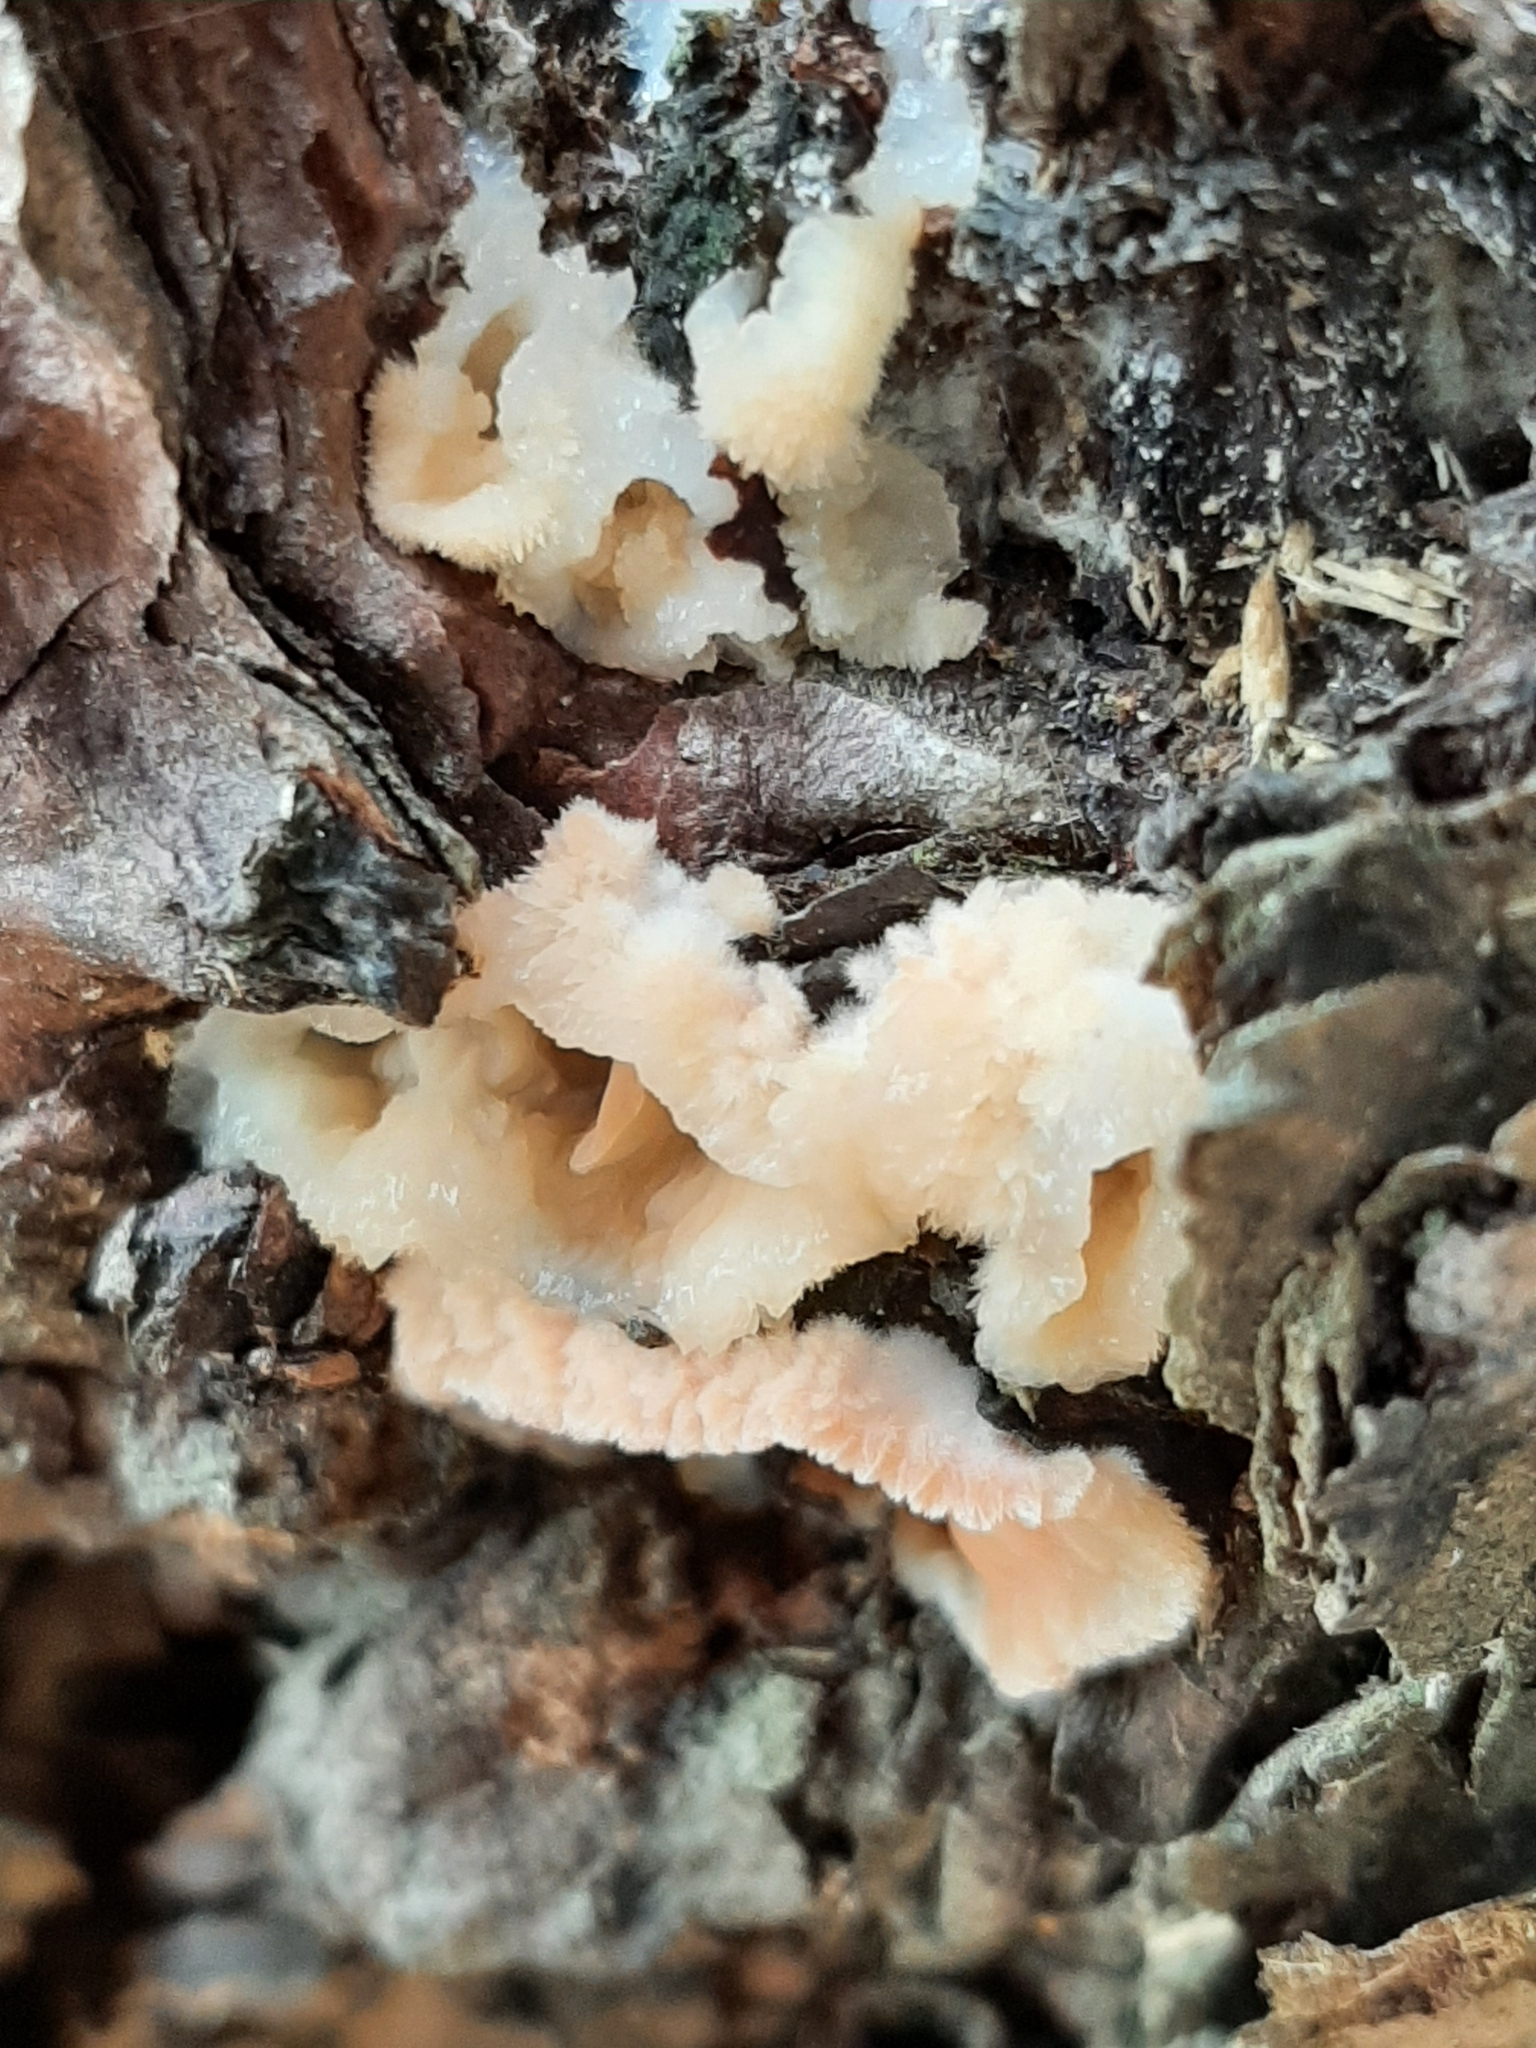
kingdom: Fungi
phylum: Basidiomycota
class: Agaricomycetes
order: Polyporales
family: Meruliaceae
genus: Phlebia
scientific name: Phlebia tremellosa
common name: Jelly rot
